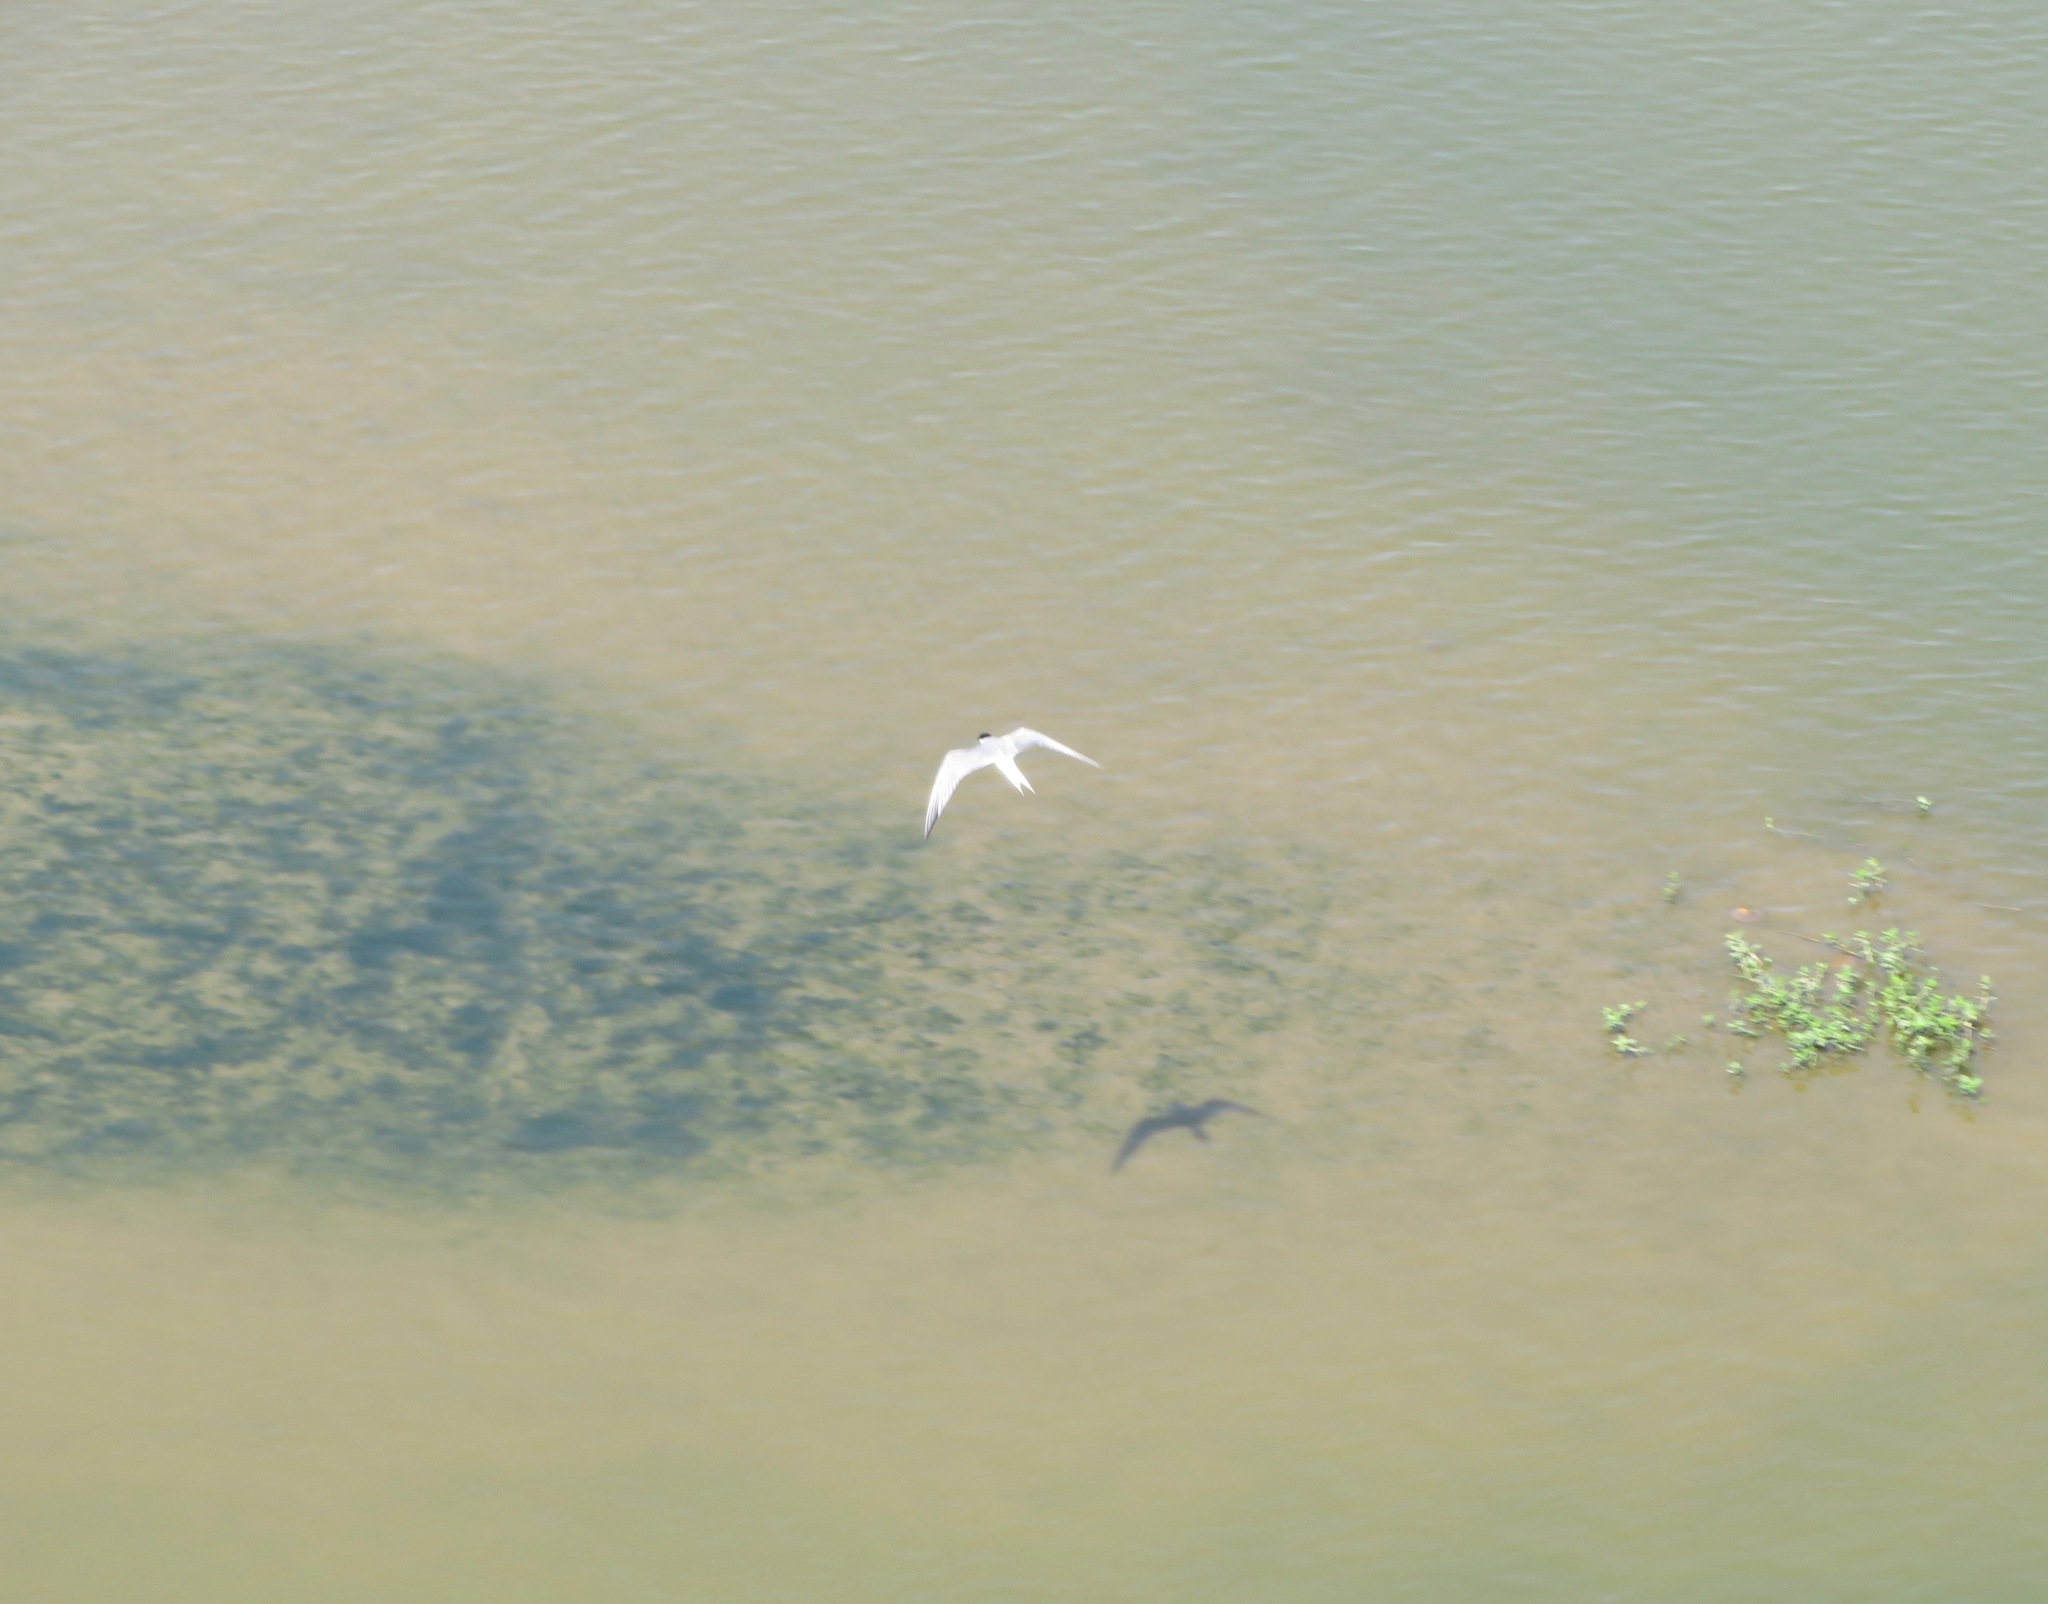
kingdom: Animalia
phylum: Chordata
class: Aves
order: Charadriiformes
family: Laridae
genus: Sterna
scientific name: Sterna hirundo
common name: Common tern
